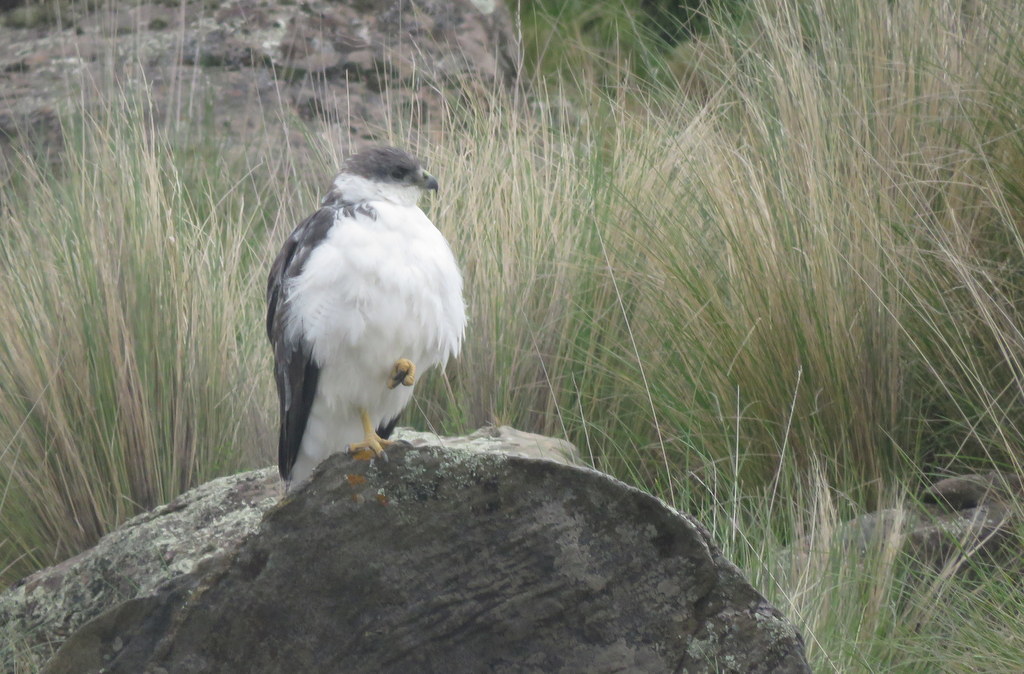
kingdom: Animalia
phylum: Chordata
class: Aves
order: Accipitriformes
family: Accipitridae
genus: Buteo
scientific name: Buteo polyosoma
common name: Variable hawk
